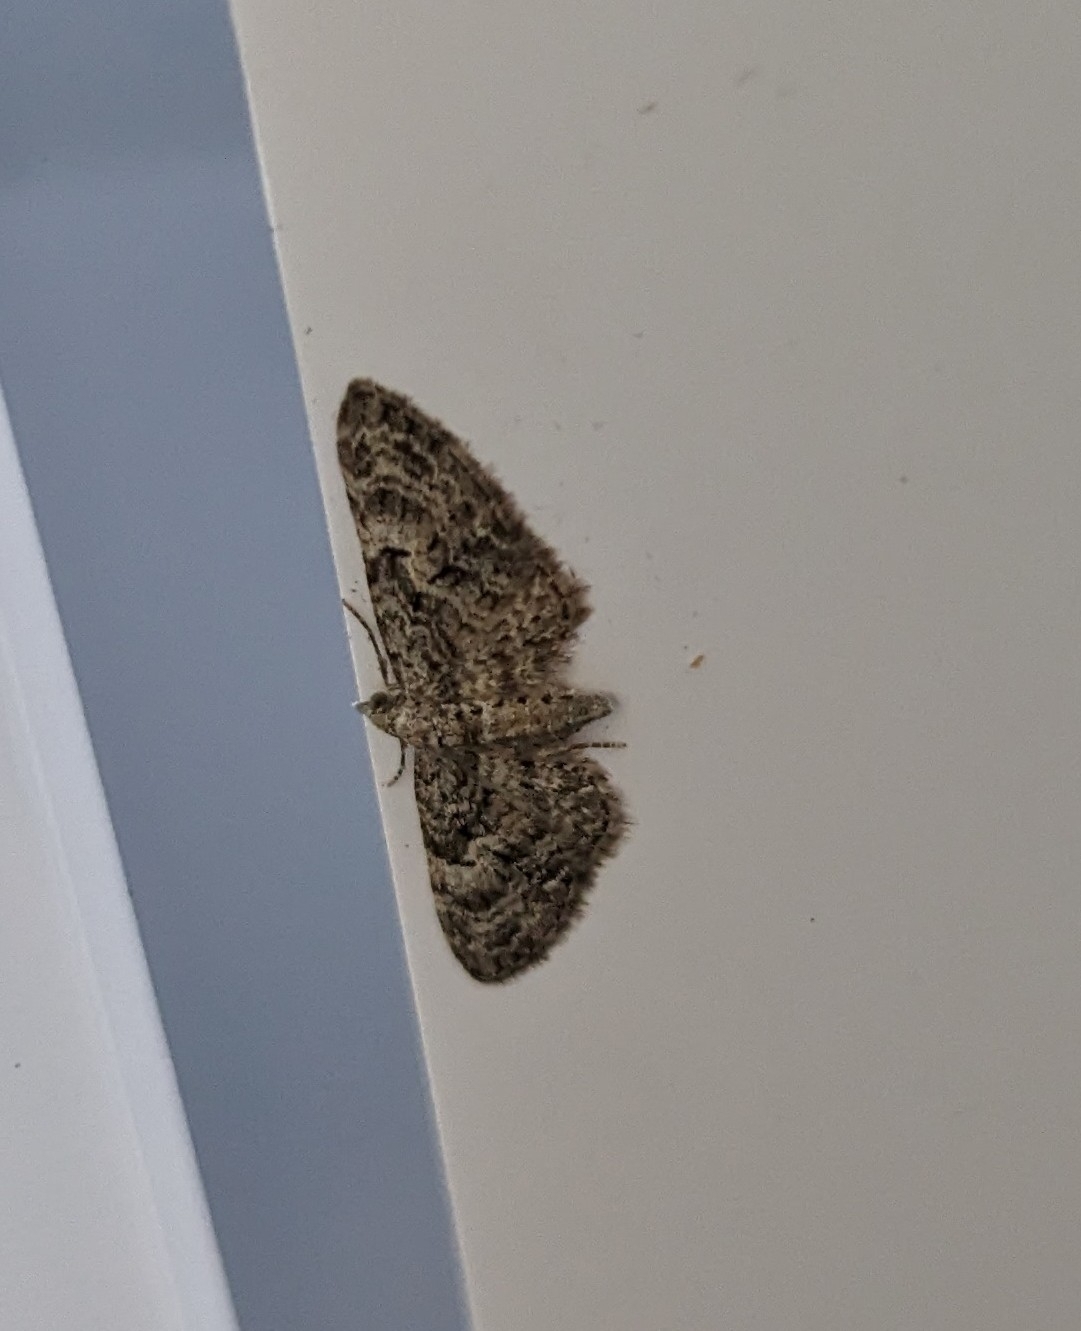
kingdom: Animalia
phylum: Arthropoda
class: Insecta
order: Lepidoptera
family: Geometridae
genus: Eupithecia
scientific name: Eupithecia dodoneata
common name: Oak-tree pug
